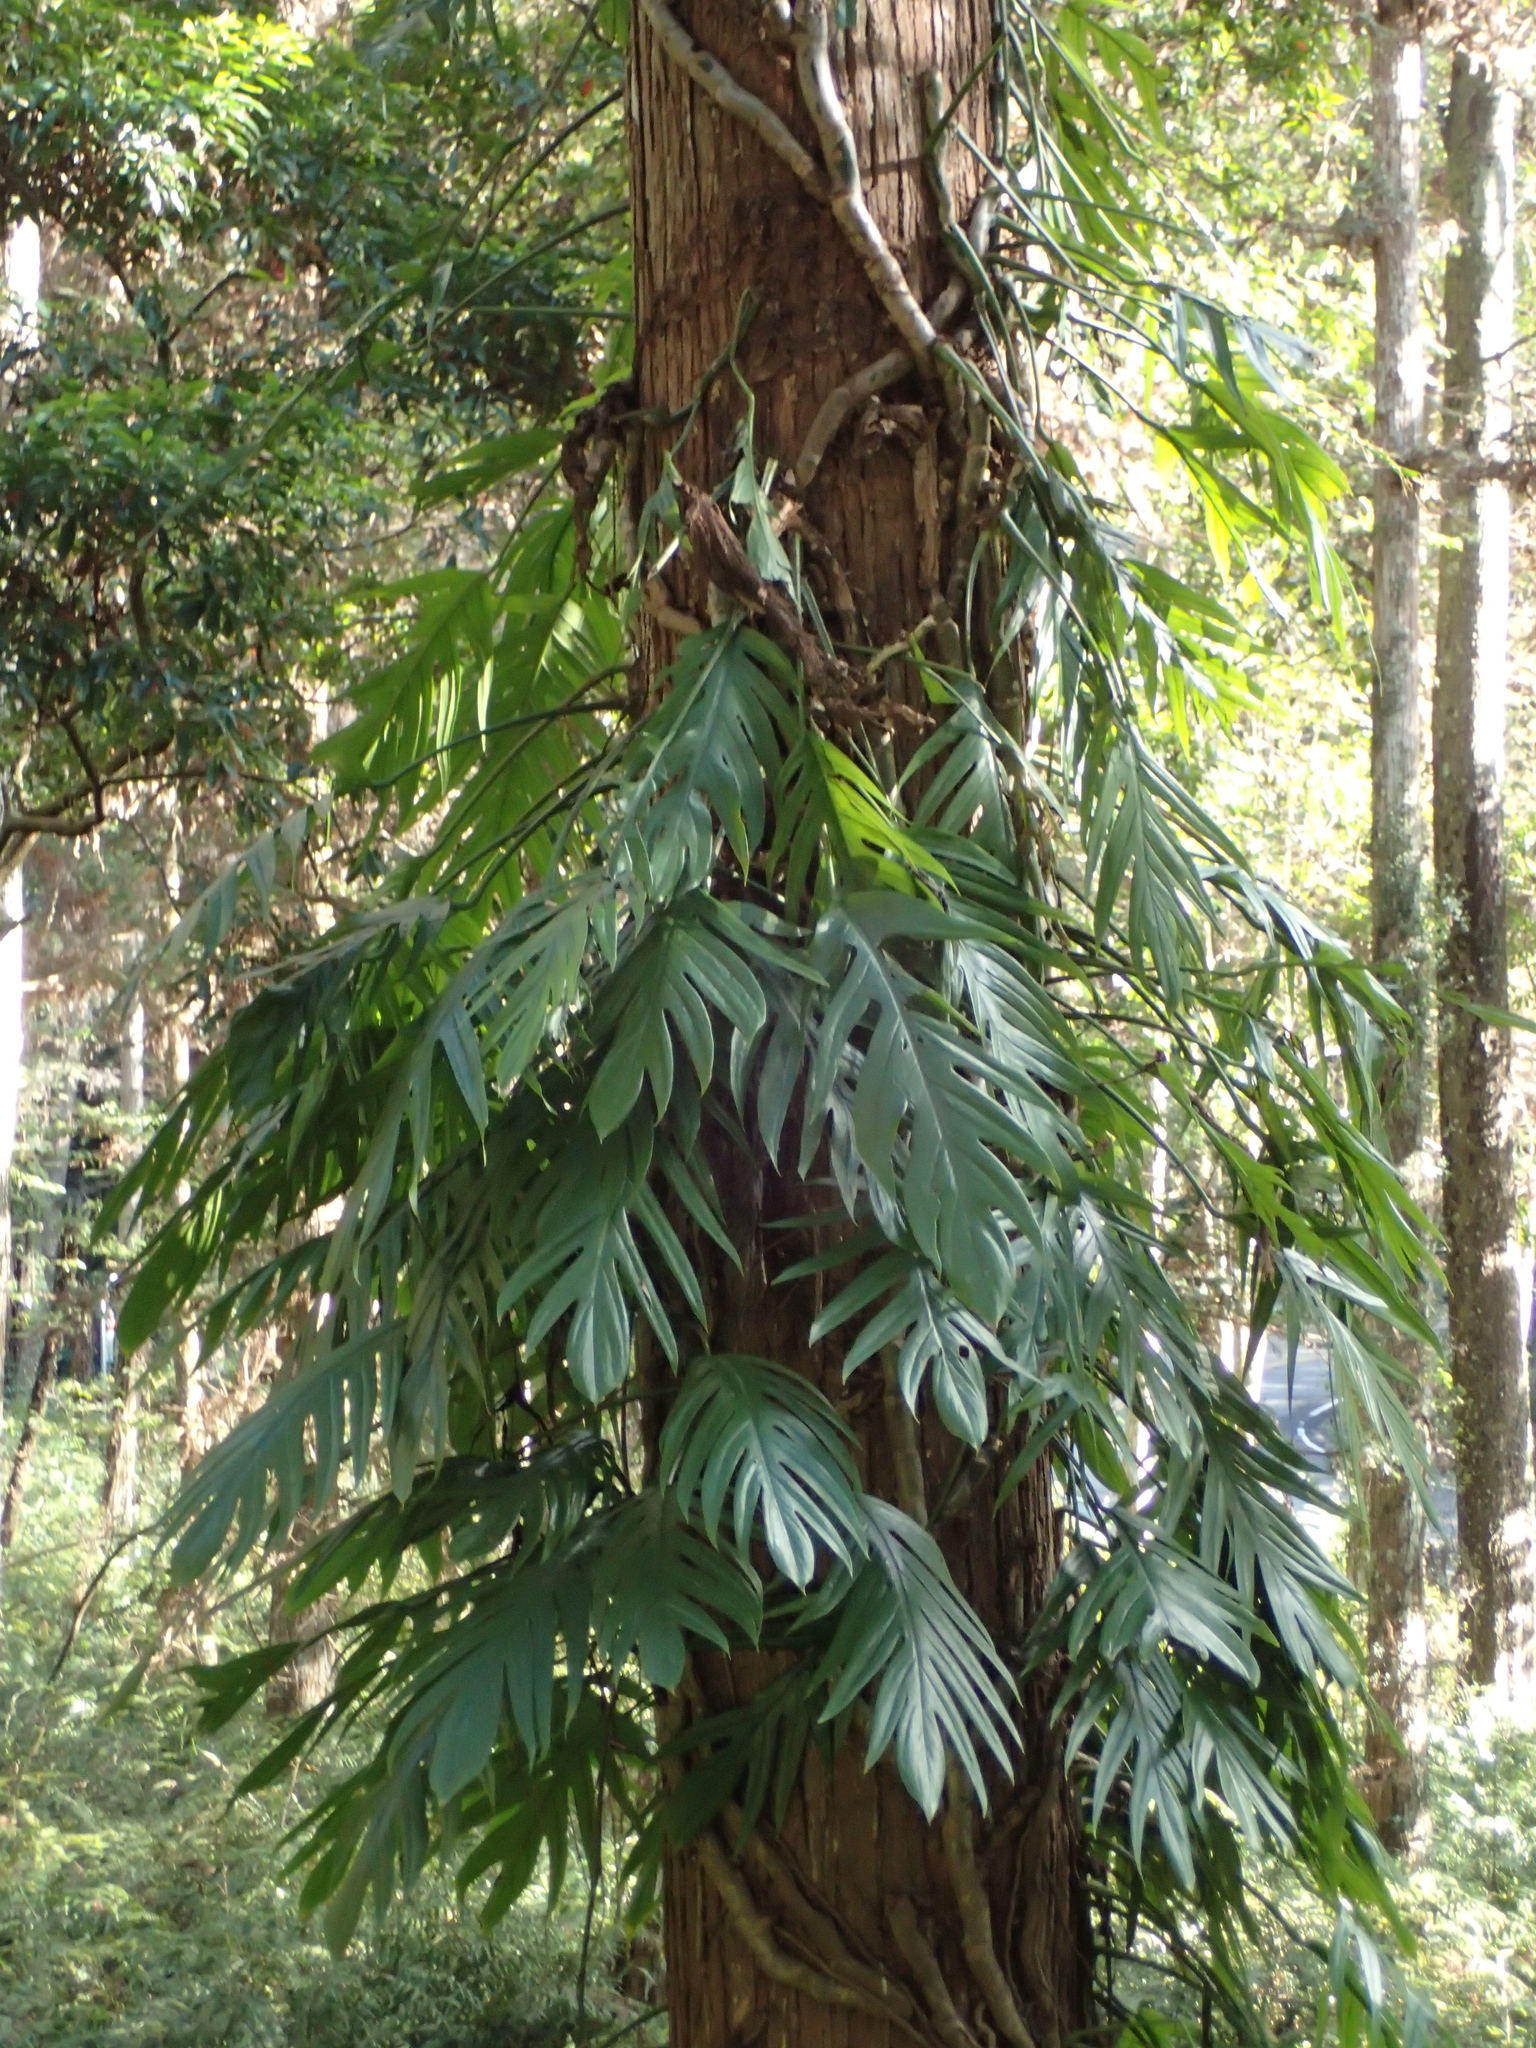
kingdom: Plantae
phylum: Tracheophyta
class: Liliopsida
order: Alismatales
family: Araceae
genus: Epipremnum
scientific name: Epipremnum pinnatum
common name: Centipede tongavine
